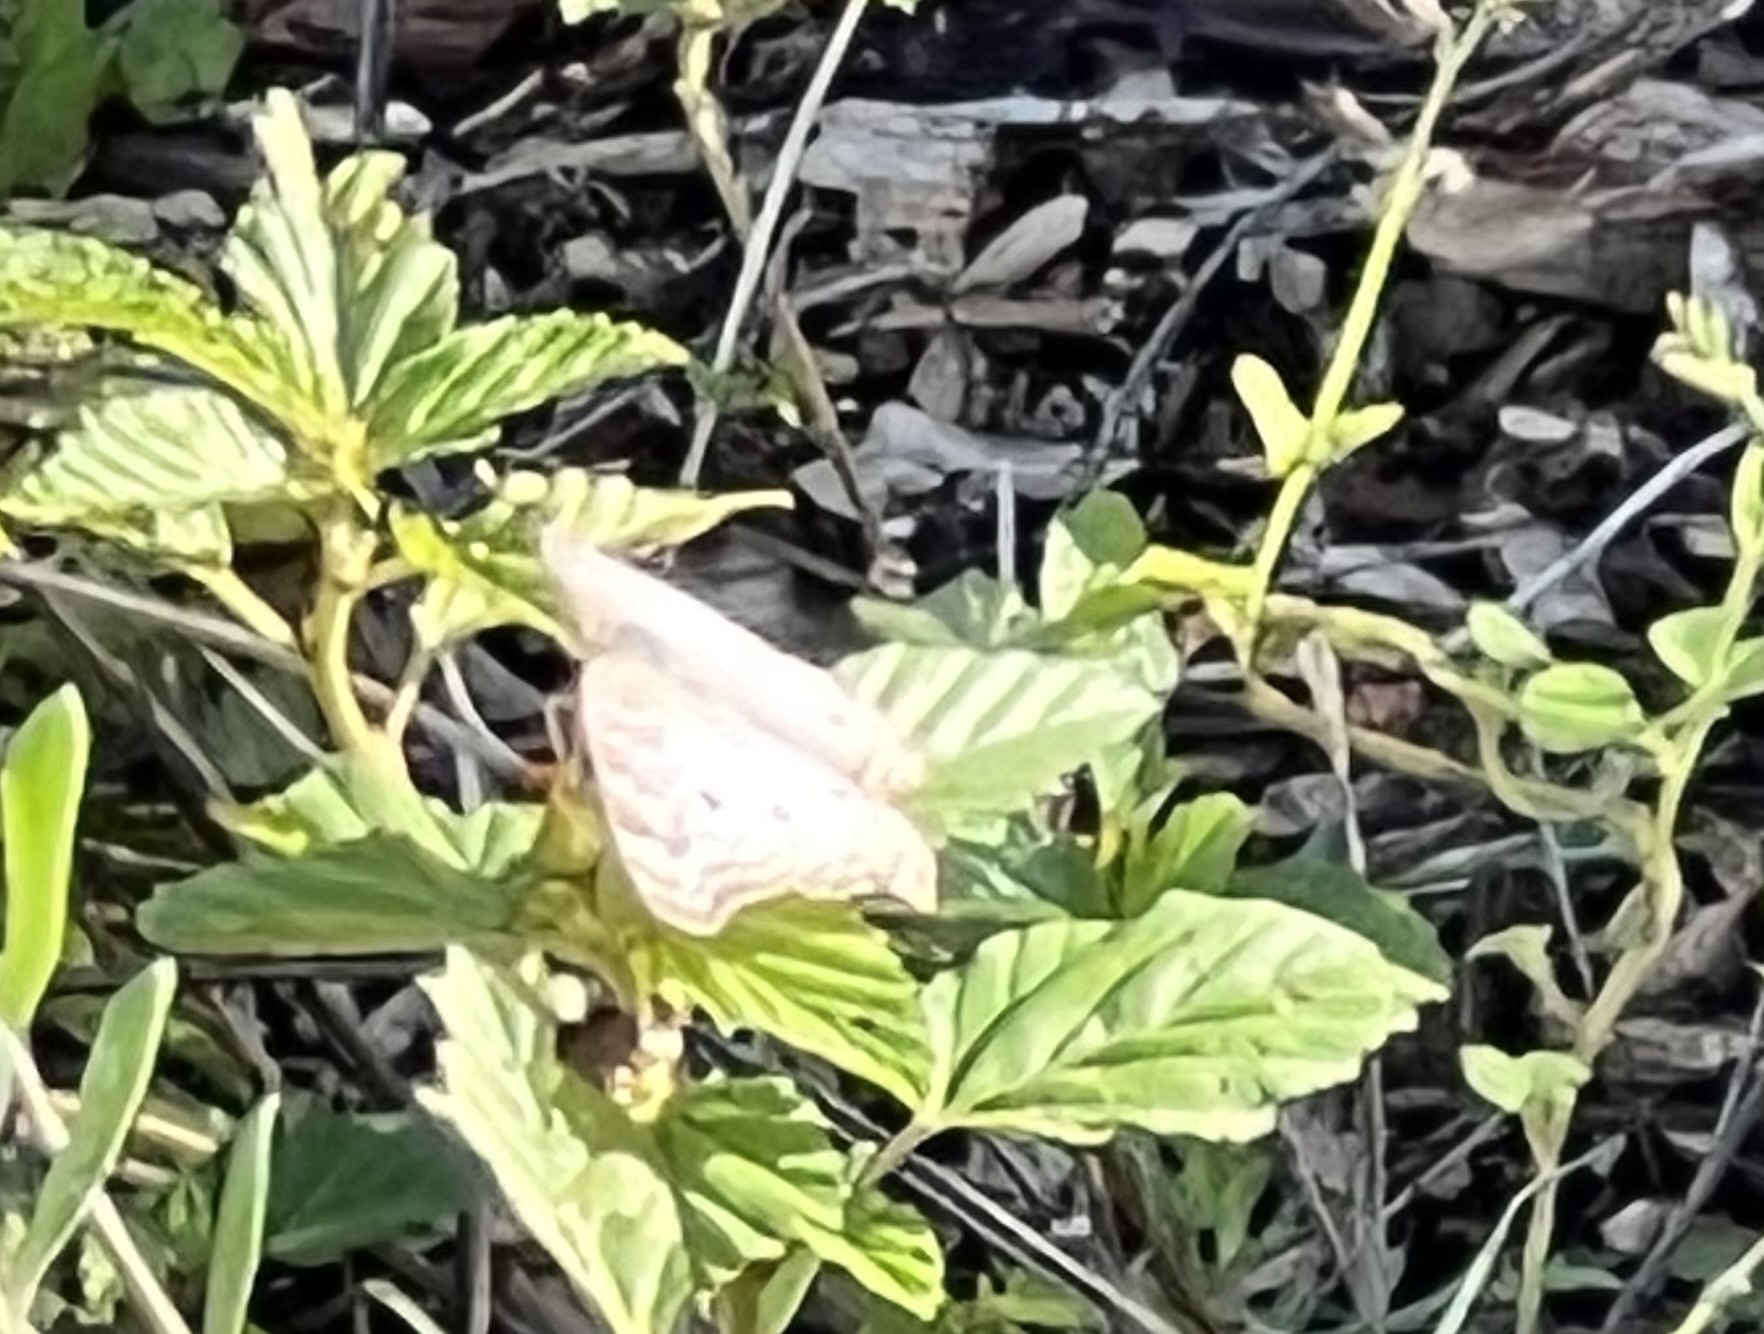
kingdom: Animalia
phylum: Arthropoda
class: Insecta
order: Lepidoptera
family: Nymphalidae
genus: Anartia
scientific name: Anartia jatrophae
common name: White peacock
